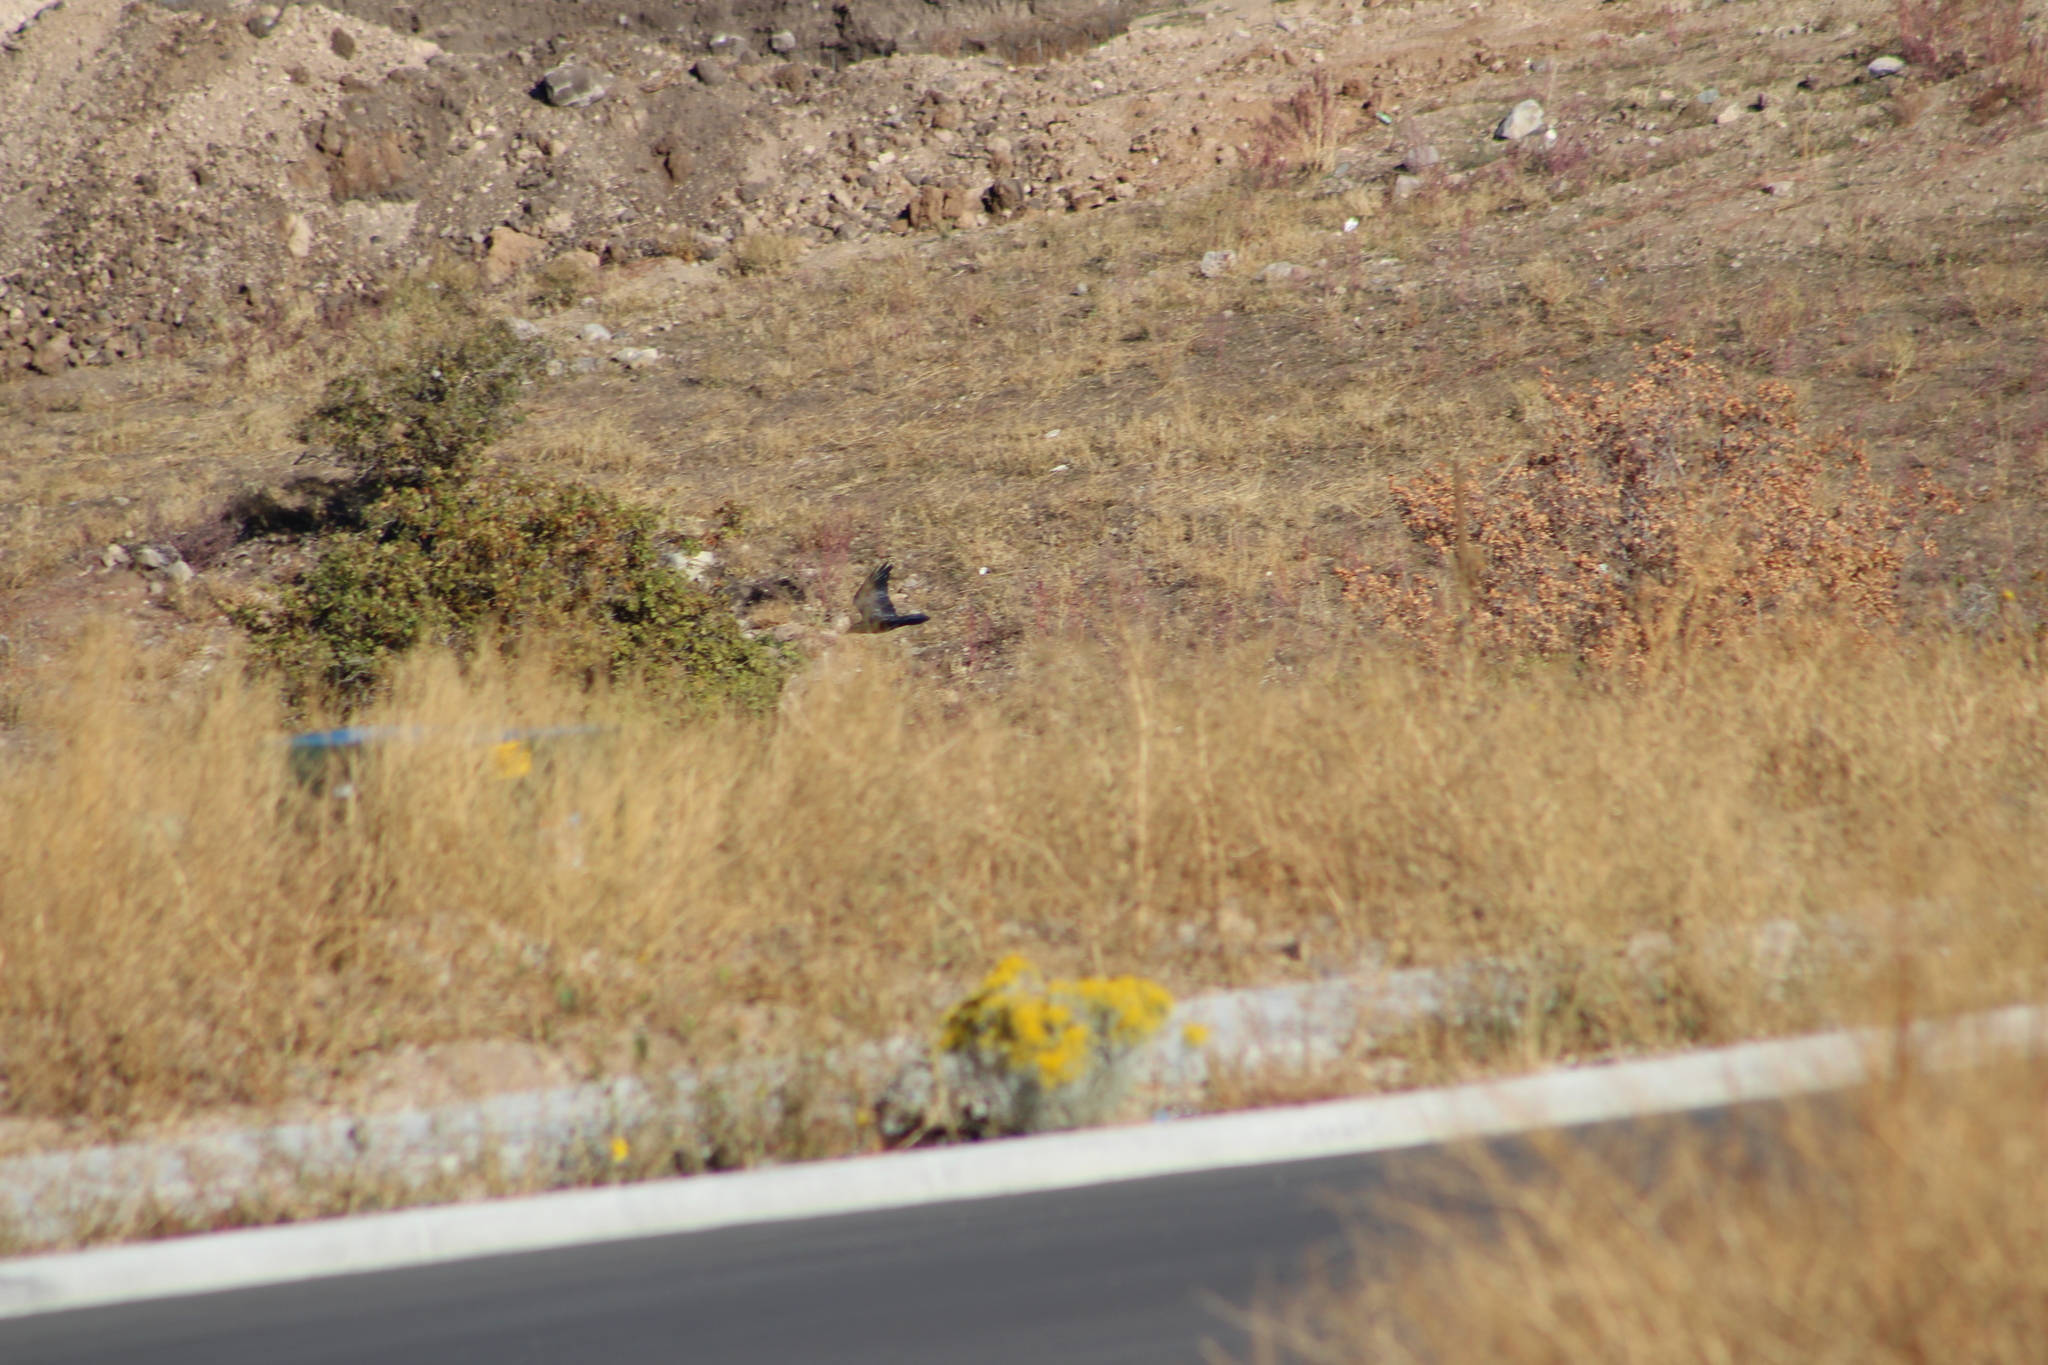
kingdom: Animalia
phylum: Chordata
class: Aves
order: Passeriformes
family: Corvidae
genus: Corvus
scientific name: Corvus corax
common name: Common raven
